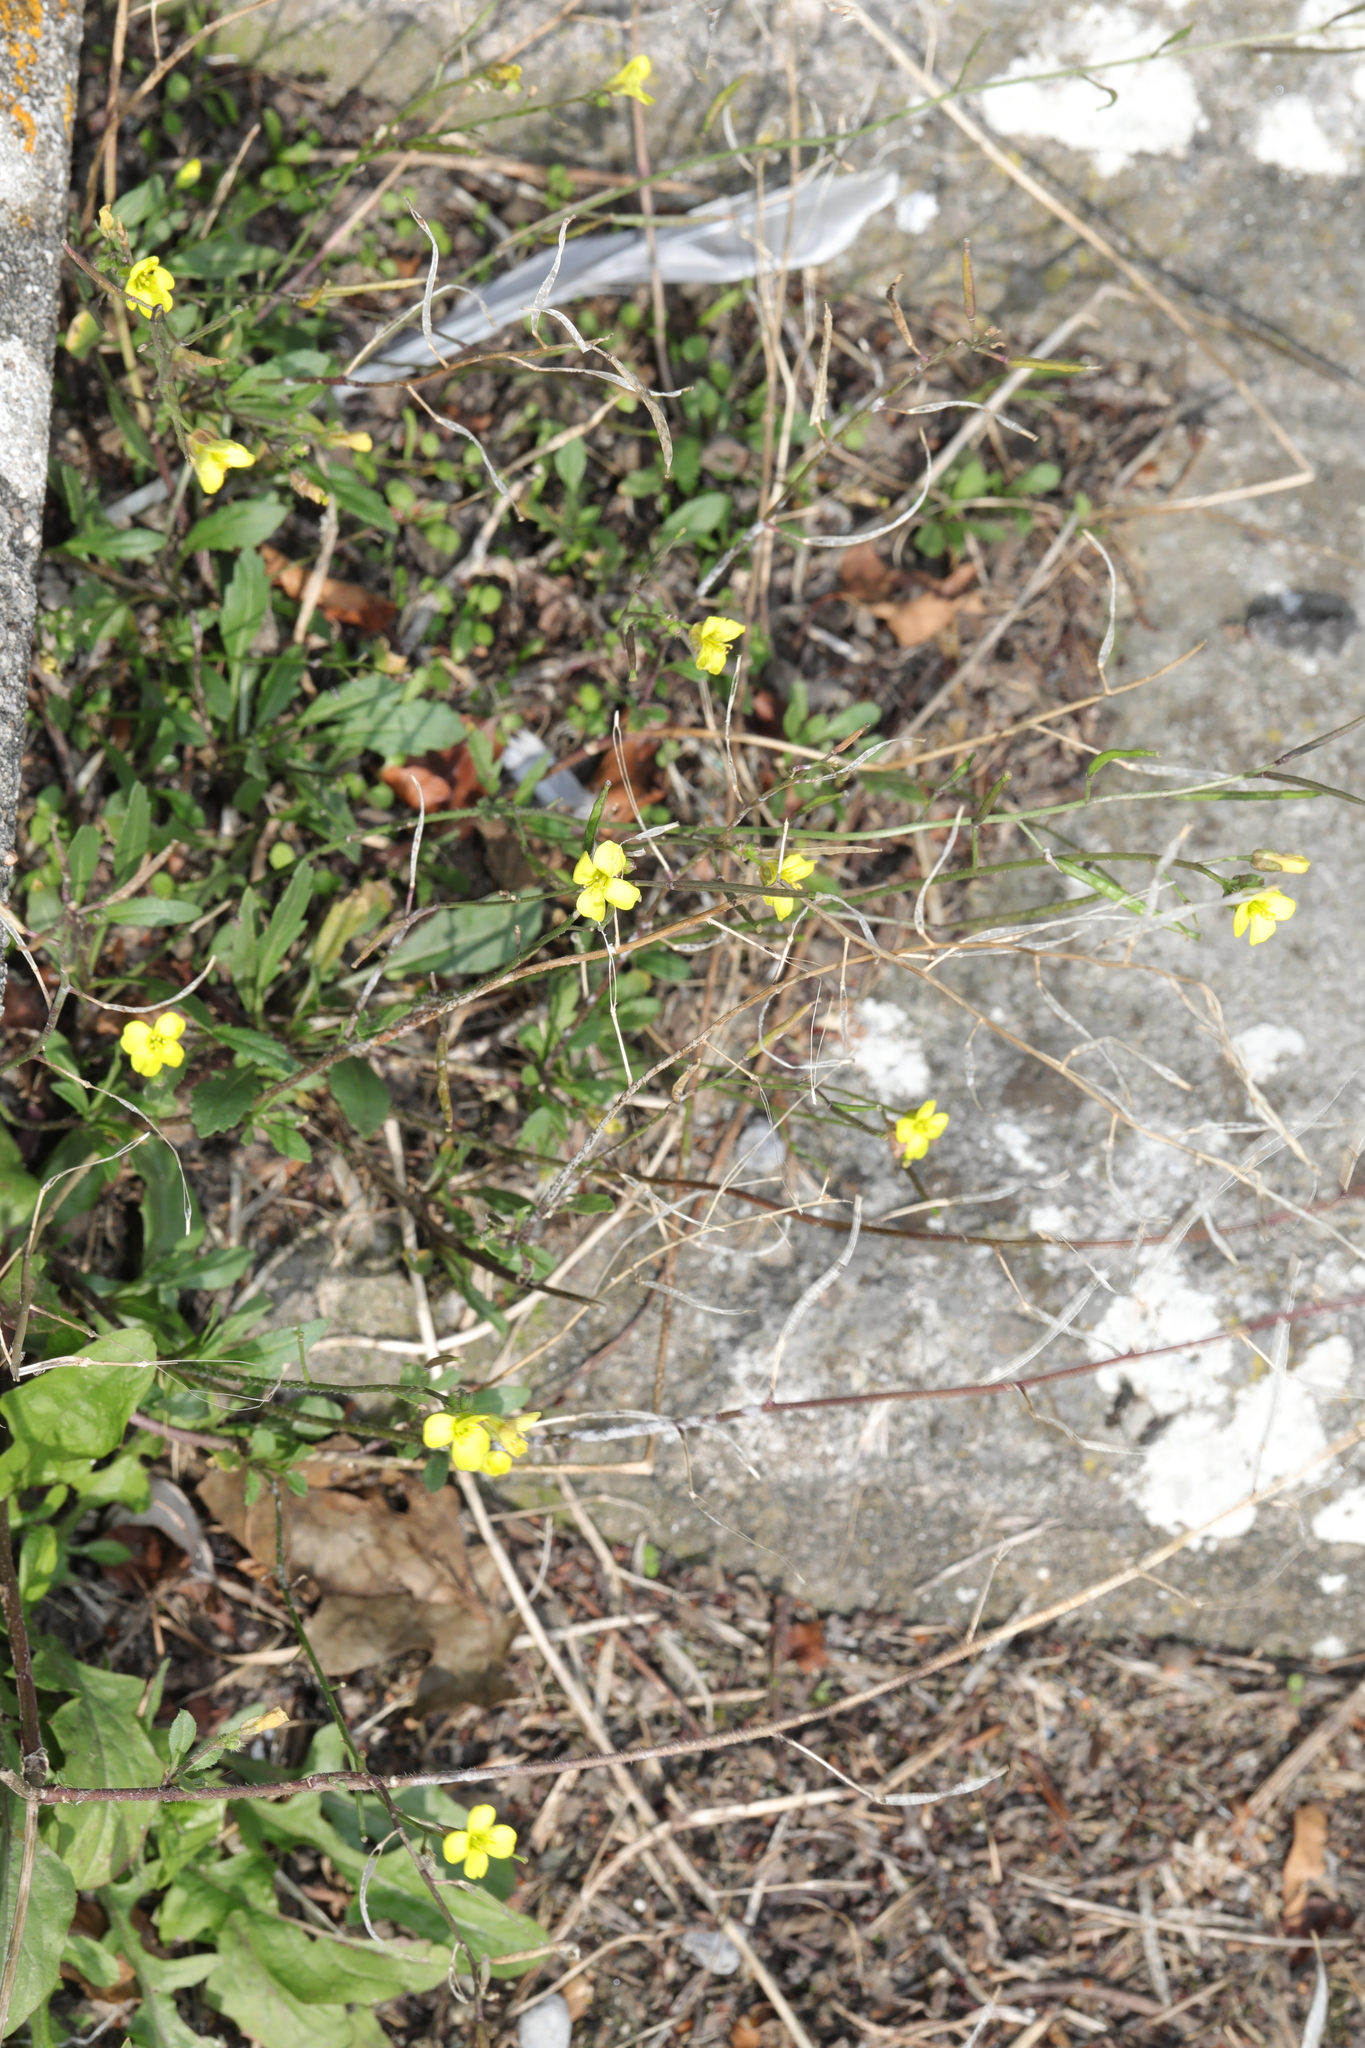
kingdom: Plantae
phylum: Tracheophyta
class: Magnoliopsida
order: Brassicales
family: Brassicaceae
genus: Diplotaxis
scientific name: Diplotaxis muralis
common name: Annual wall-rocket
